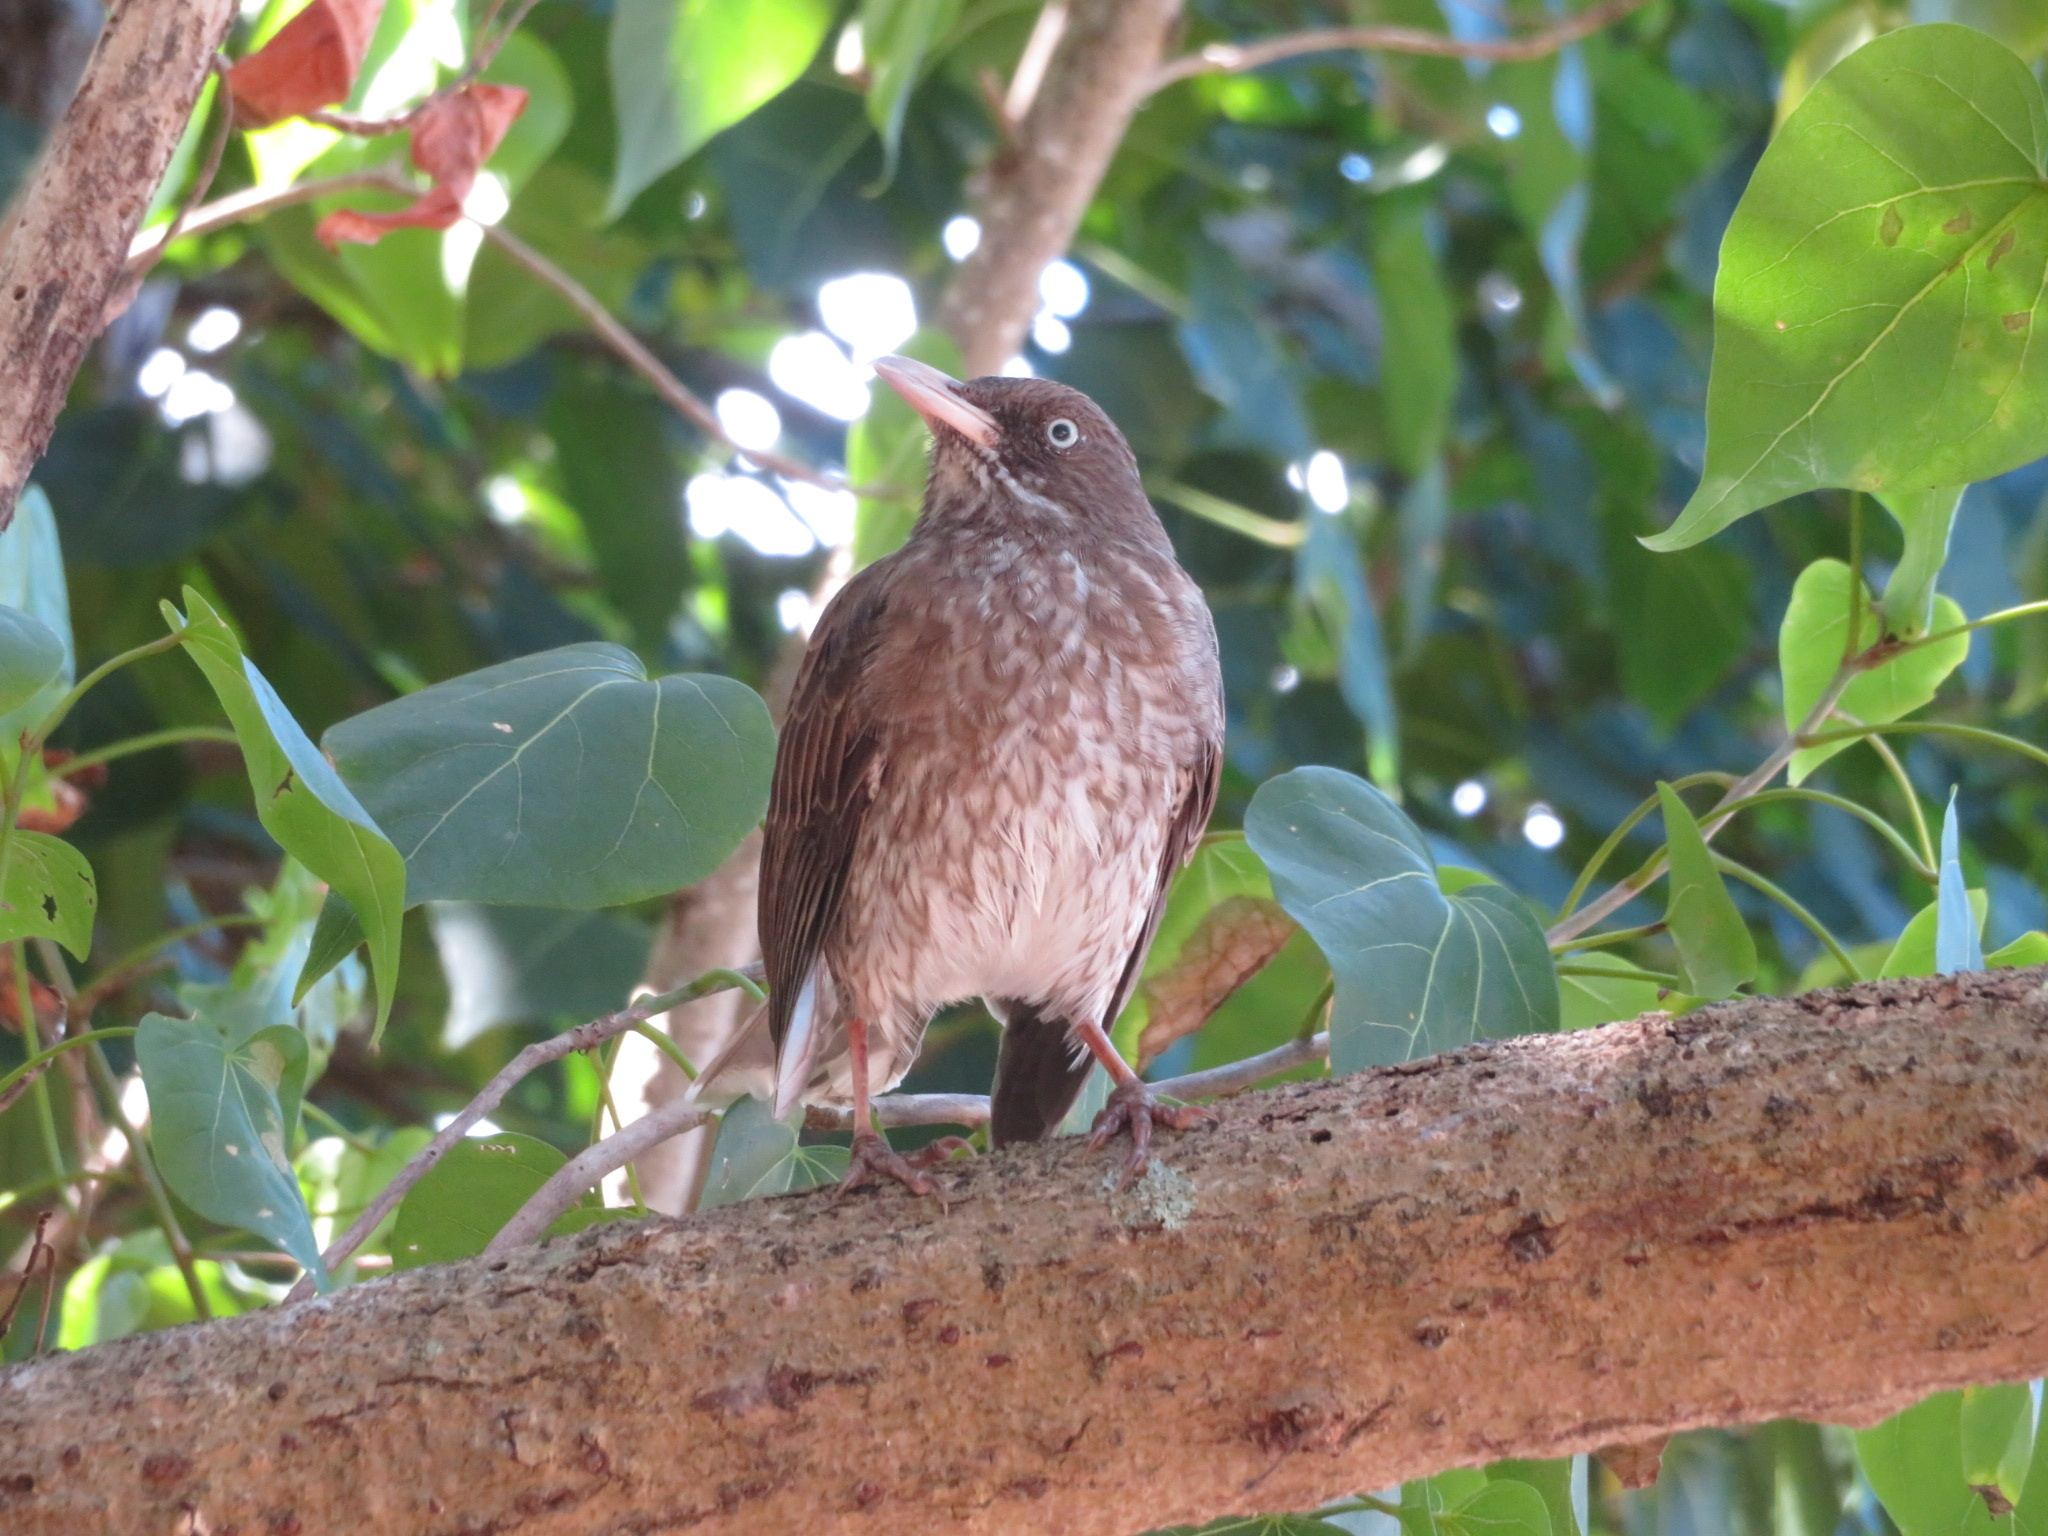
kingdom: Animalia
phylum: Chordata
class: Aves
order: Passeriformes
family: Mimidae
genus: Margarops
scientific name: Margarops fuscatus
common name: Pearly-eyed thrasher
